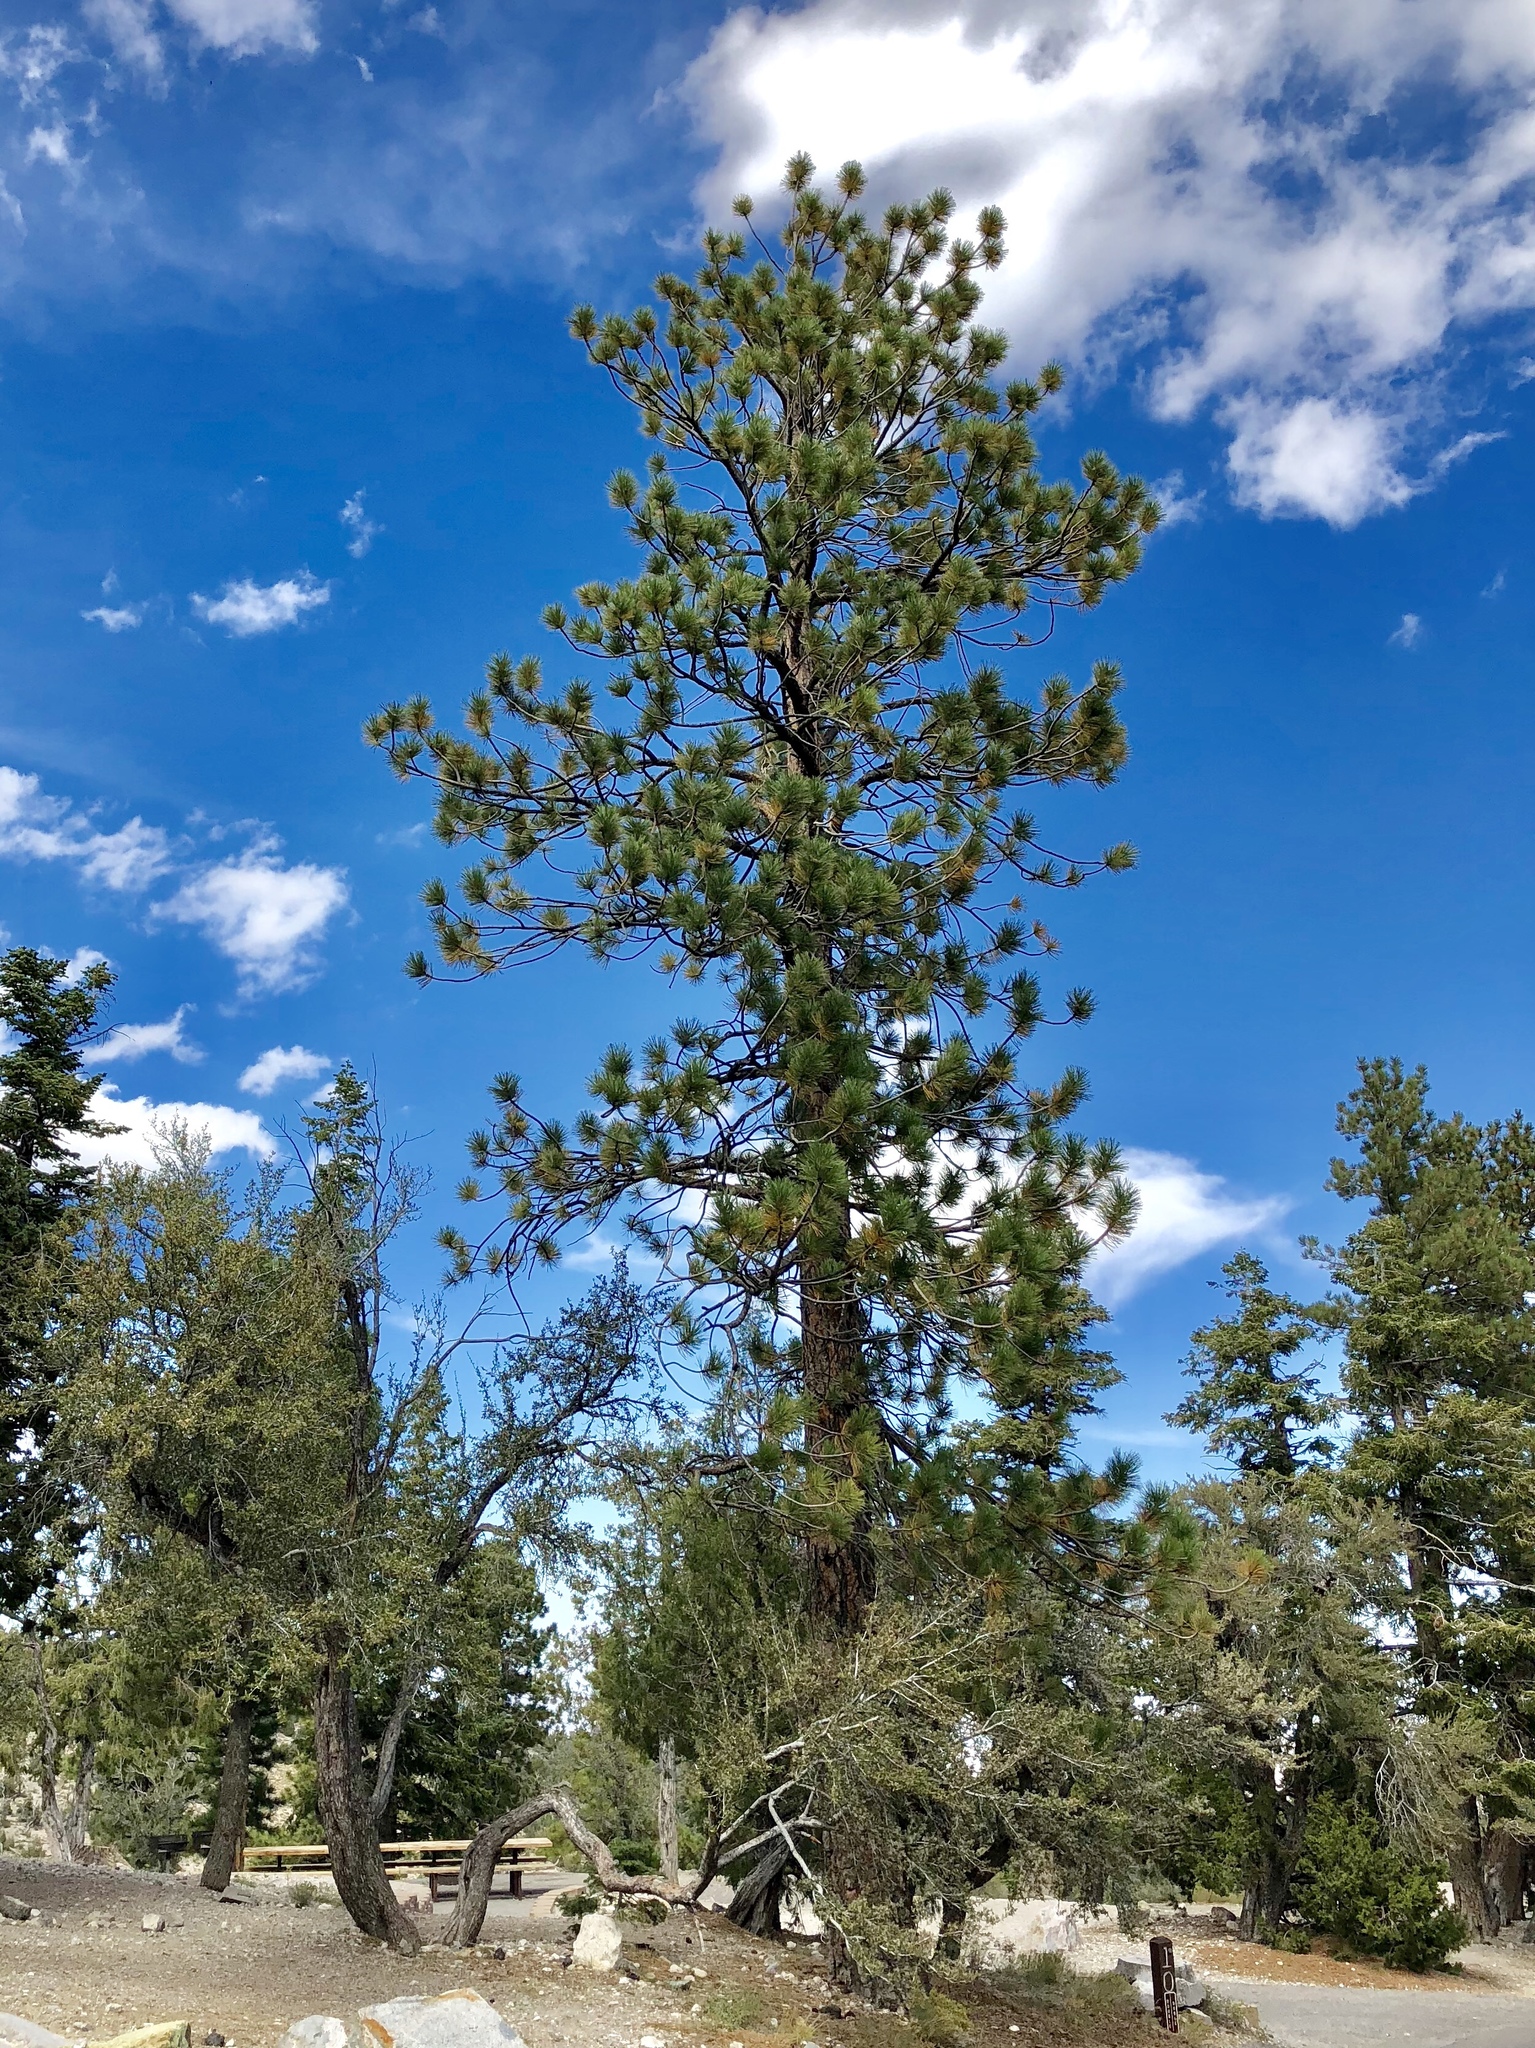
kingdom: Plantae
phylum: Tracheophyta
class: Pinopsida
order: Pinales
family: Pinaceae
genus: Pinus
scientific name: Pinus ponderosa
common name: Western yellow-pine
